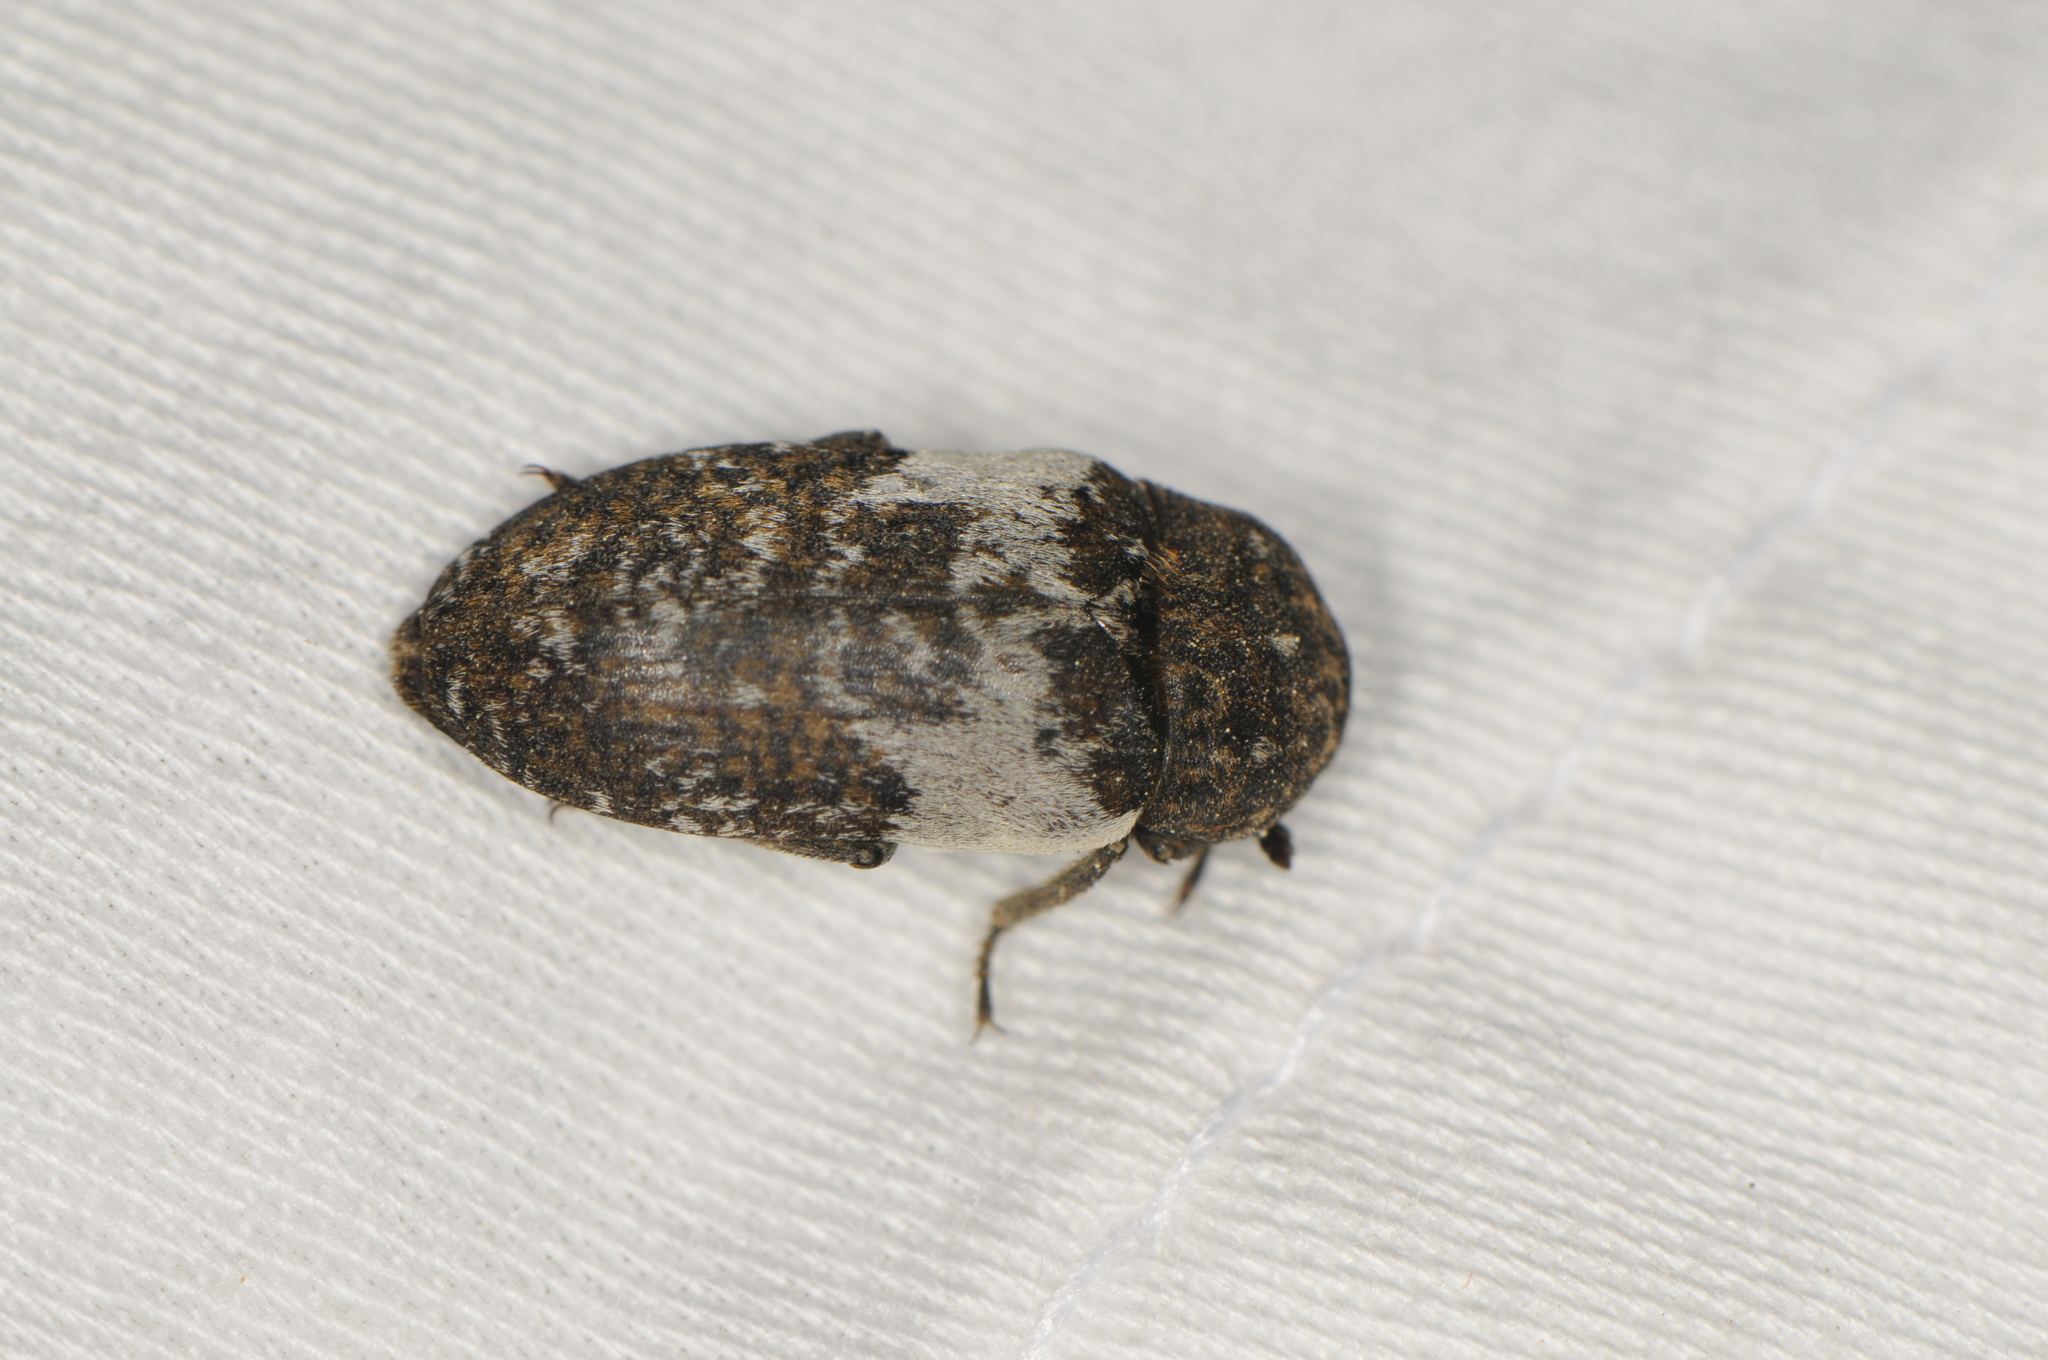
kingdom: Animalia
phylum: Arthropoda
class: Insecta
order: Coleoptera
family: Dermestidae
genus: Dermestes
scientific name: Dermestes marmoratus
